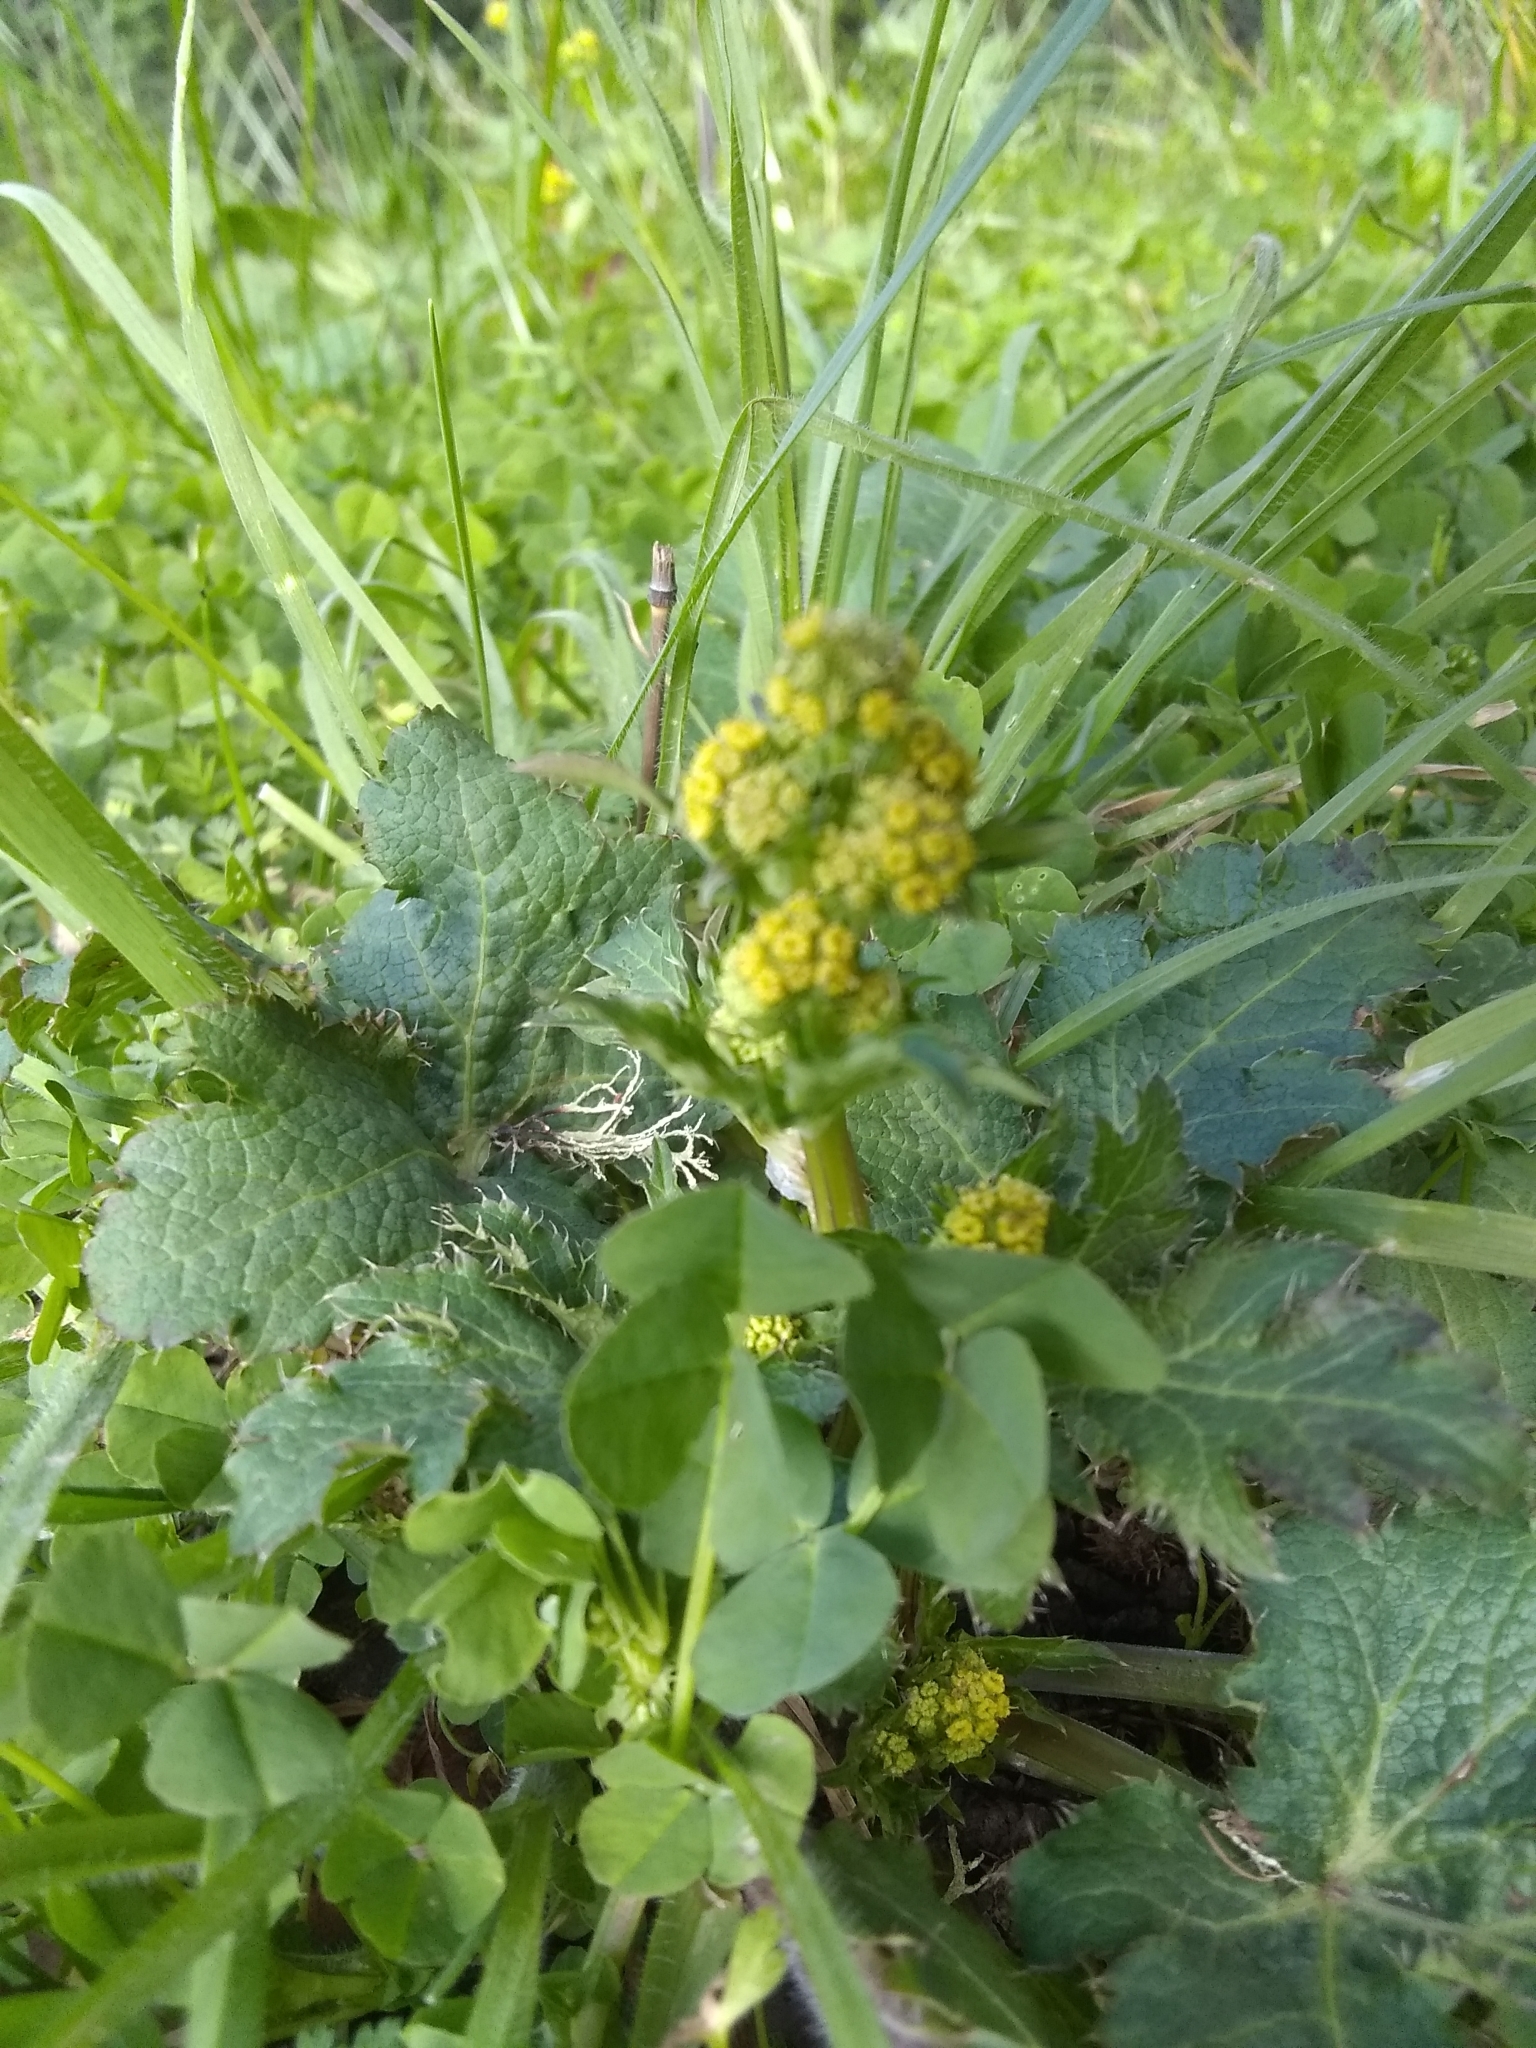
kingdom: Plantae
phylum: Tracheophyta
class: Magnoliopsida
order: Apiales
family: Apiaceae
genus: Sanicula
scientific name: Sanicula crassicaulis
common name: Western snakeroot
